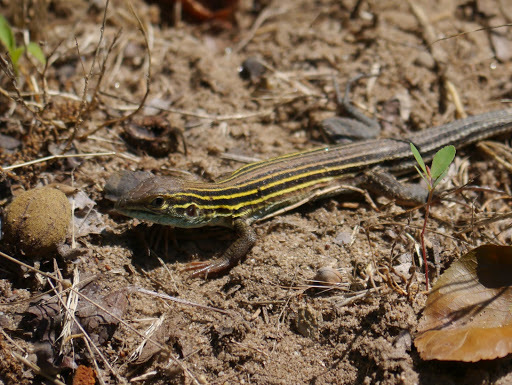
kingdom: Animalia
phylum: Chordata
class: Squamata
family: Teiidae
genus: Aspidoscelis
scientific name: Aspidoscelis sexlineatus
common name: Six-lined racerunner
